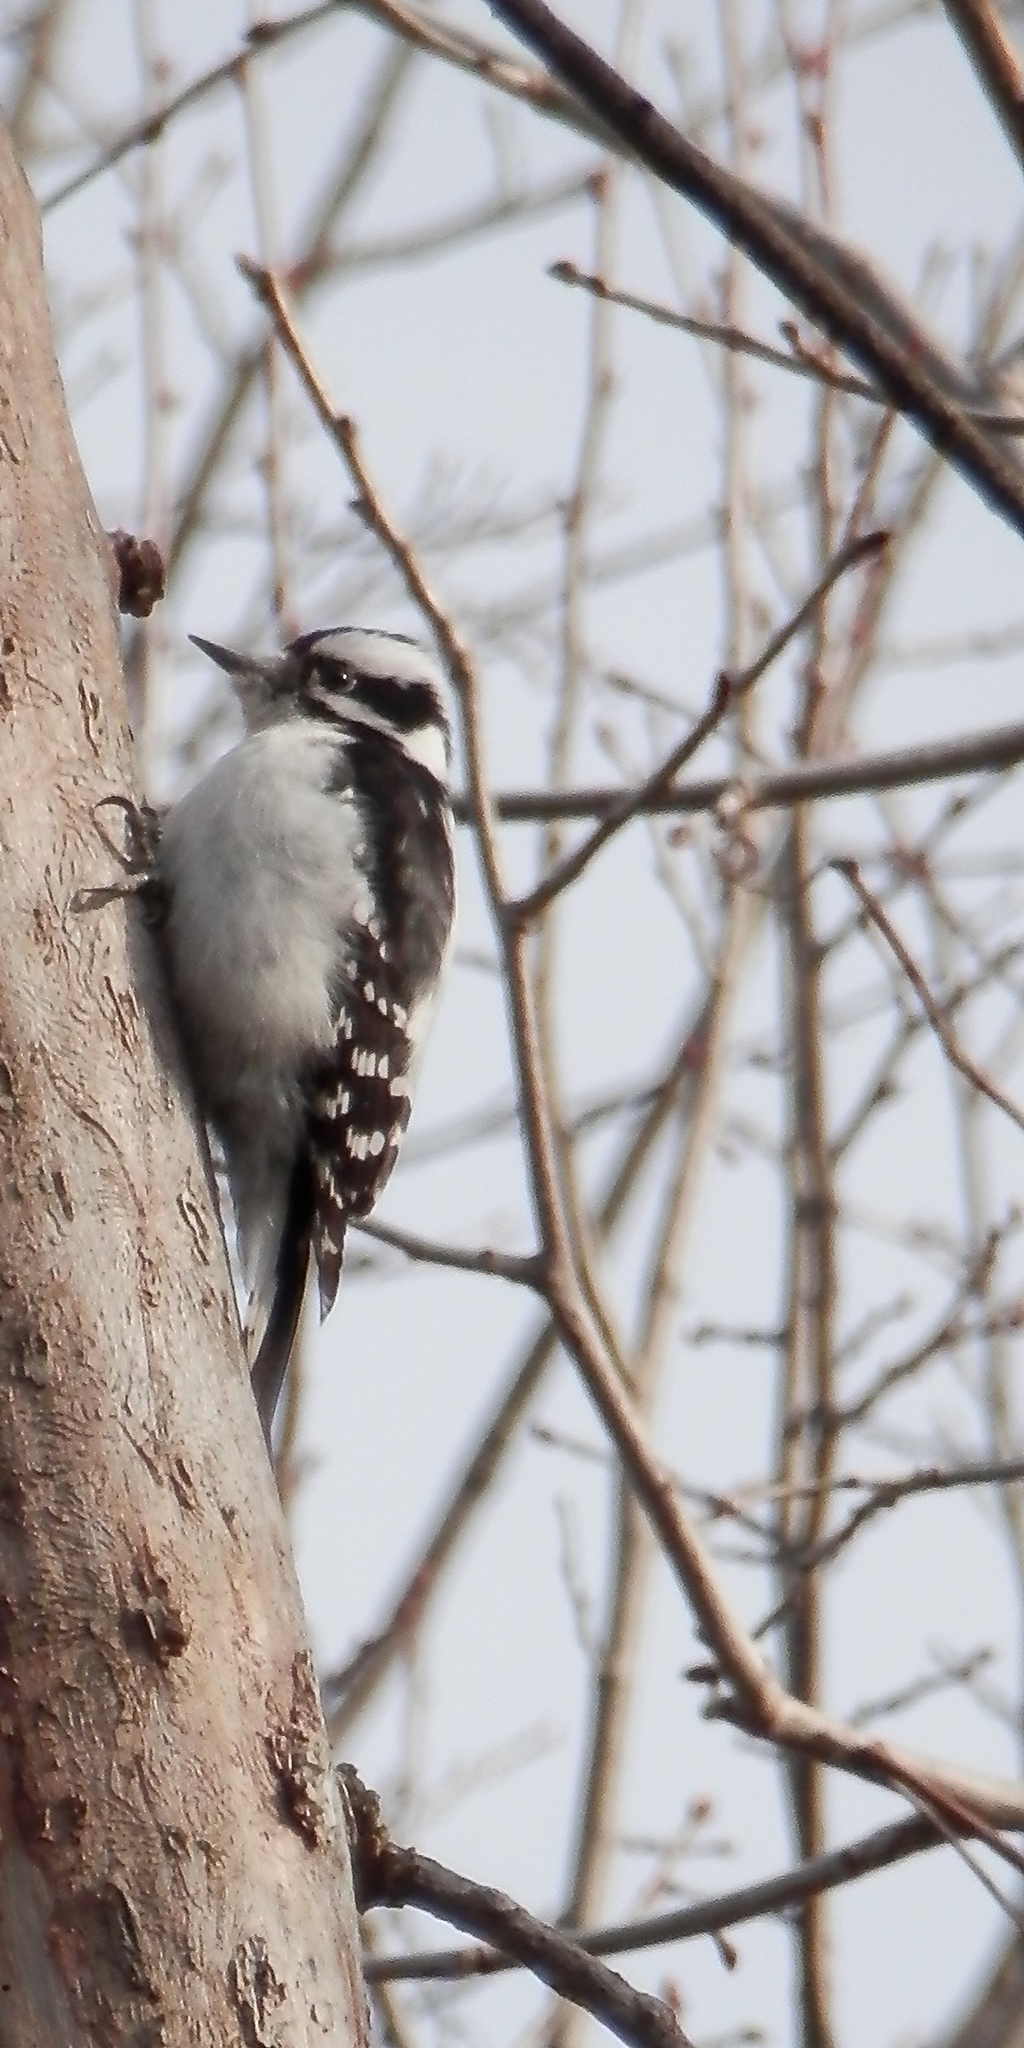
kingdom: Animalia
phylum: Chordata
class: Aves
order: Piciformes
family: Picidae
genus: Dryobates
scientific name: Dryobates pubescens
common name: Downy woodpecker
